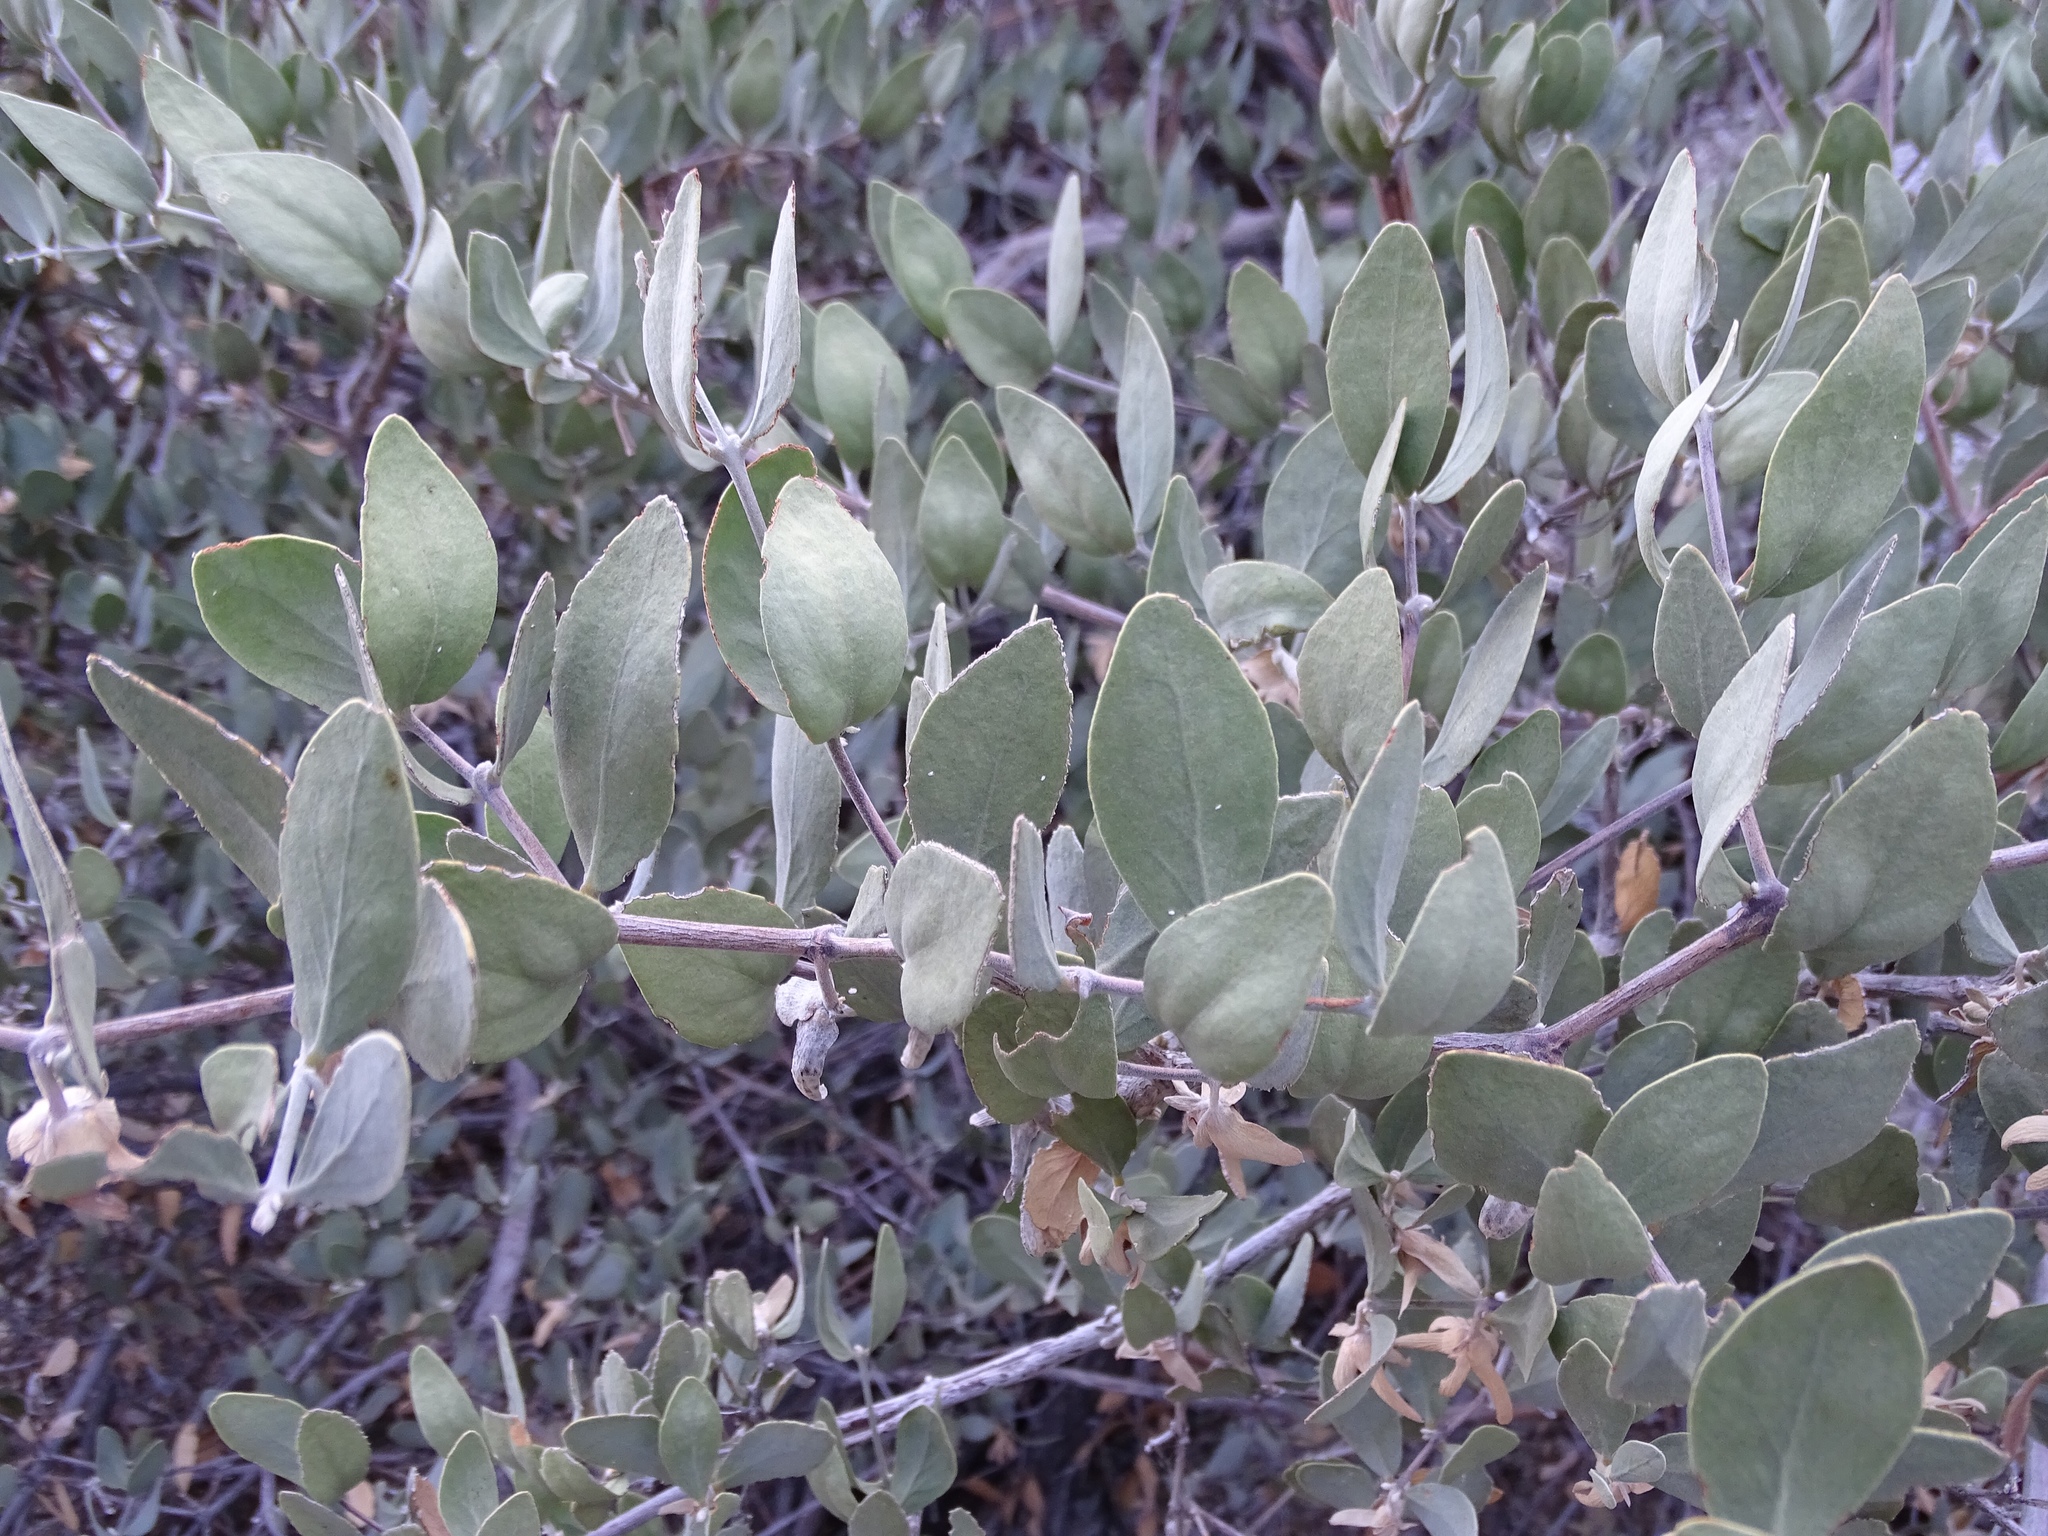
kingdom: Plantae
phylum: Tracheophyta
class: Magnoliopsida
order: Caryophyllales
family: Simmondsiaceae
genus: Simmondsia
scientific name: Simmondsia chinensis
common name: Jojoba
